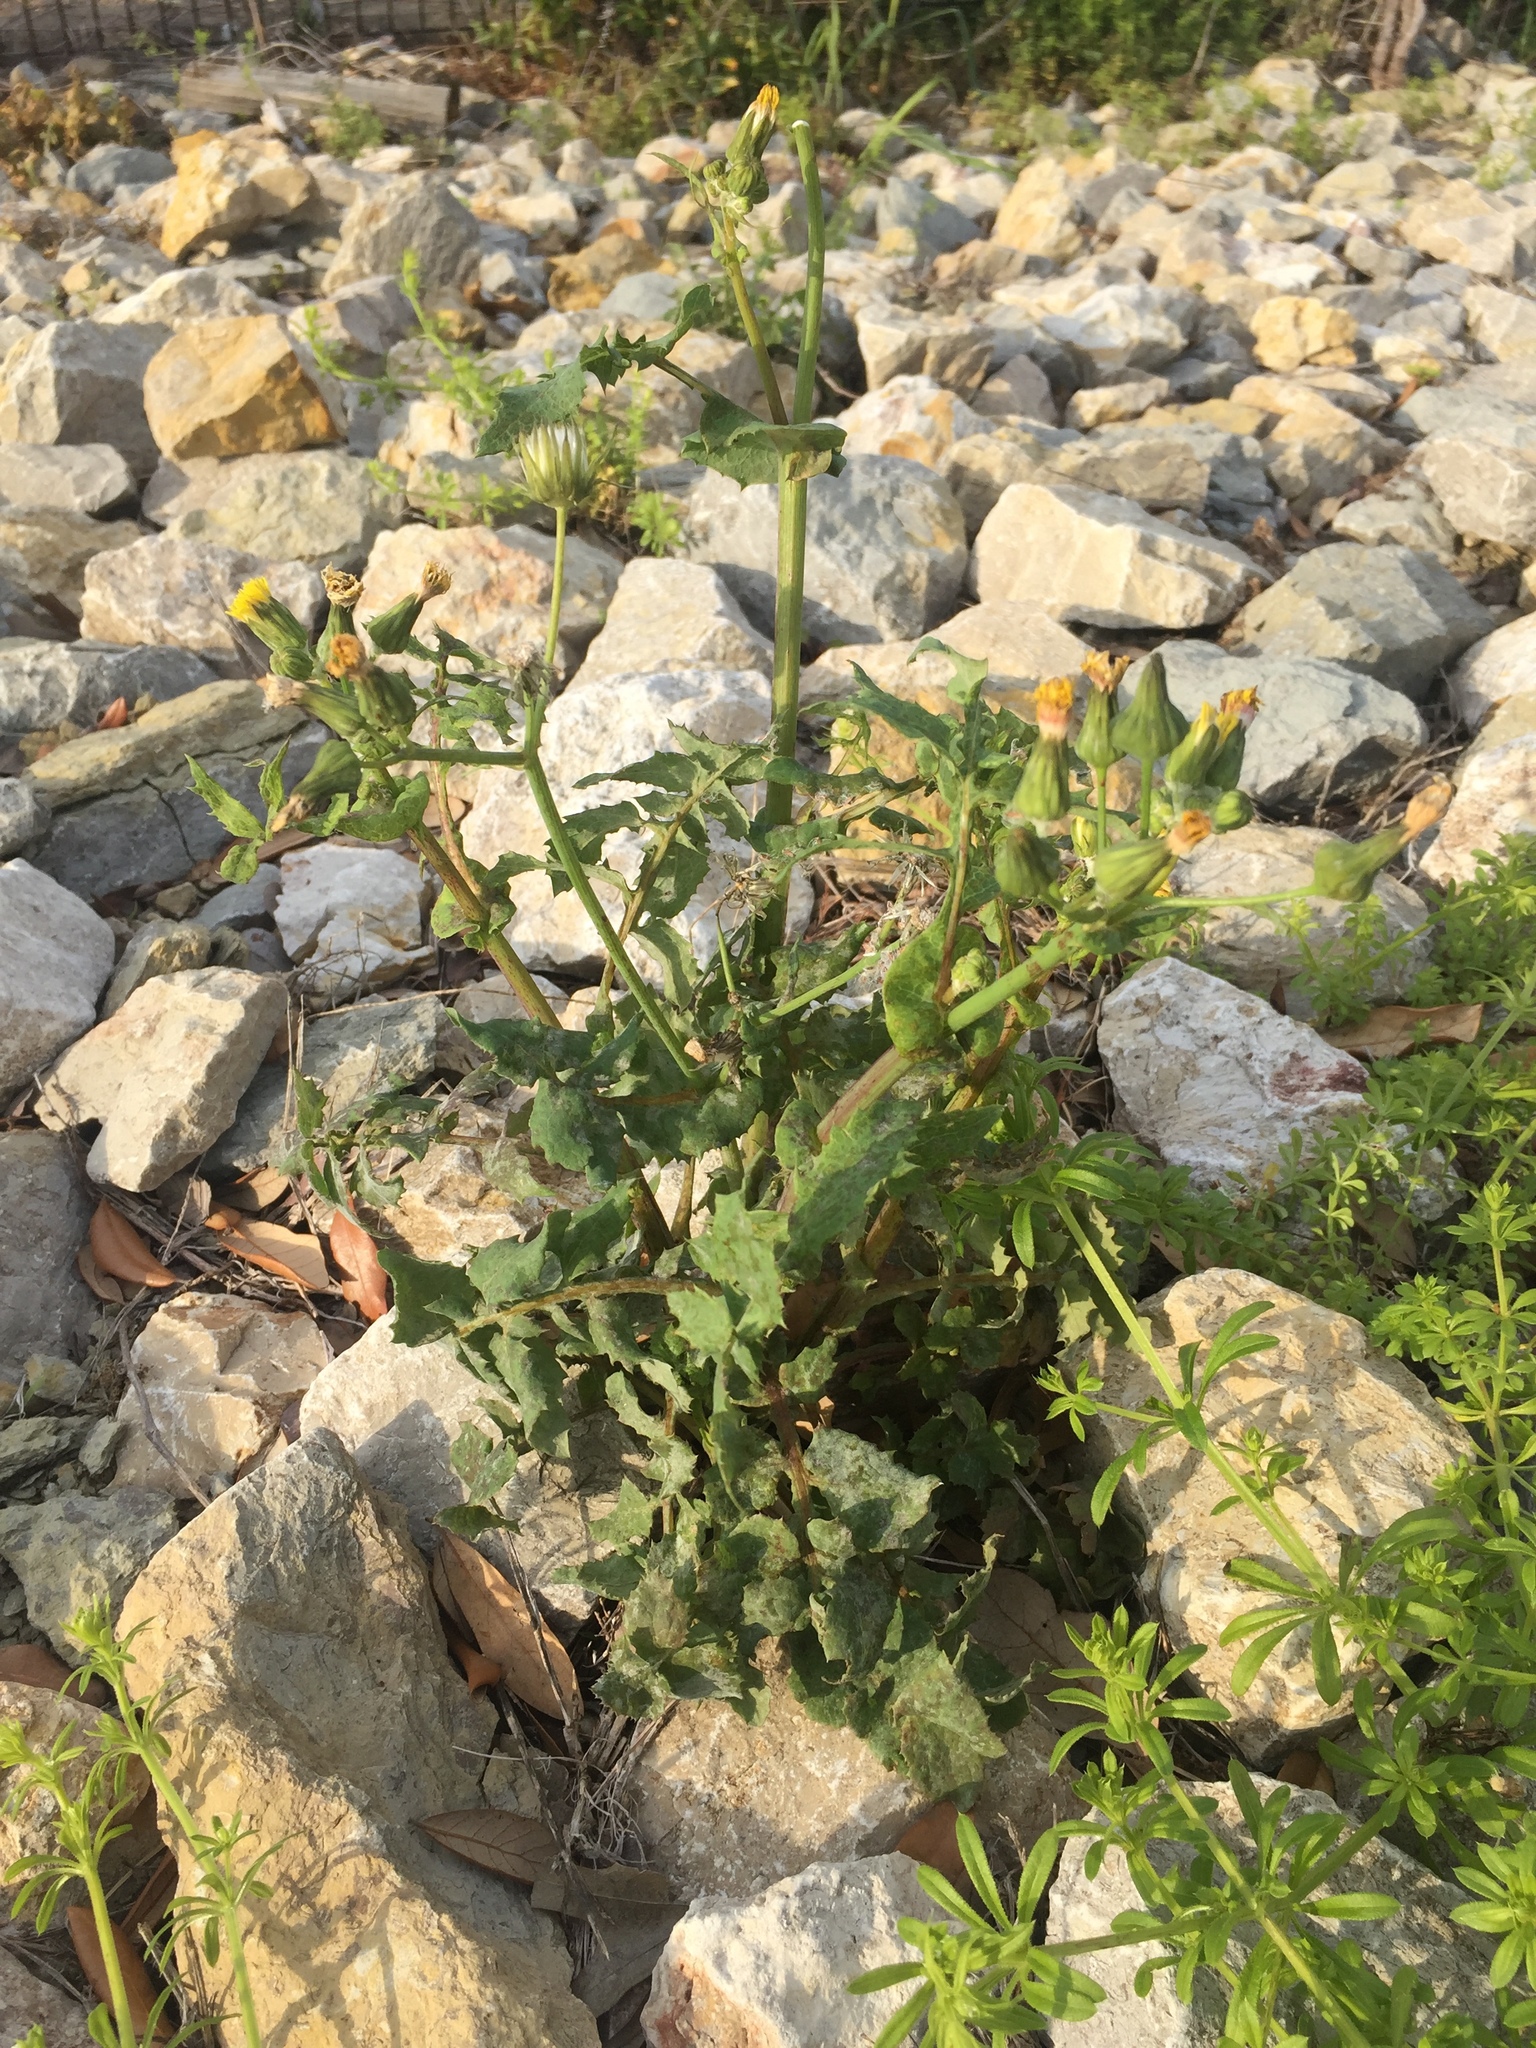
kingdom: Plantae
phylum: Tracheophyta
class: Magnoliopsida
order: Asterales
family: Asteraceae
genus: Sonchus
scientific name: Sonchus oleraceus
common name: Common sowthistle
